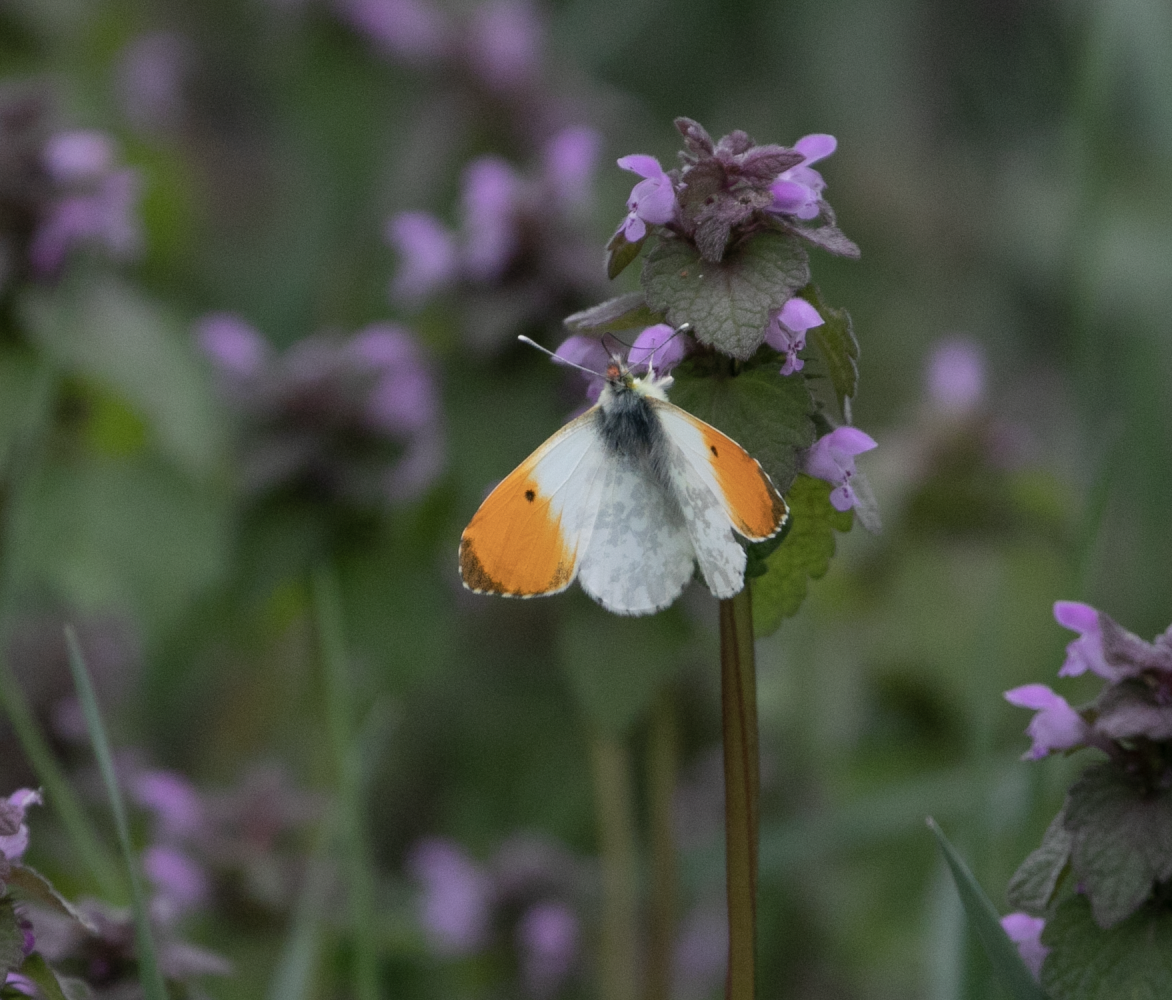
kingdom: Animalia
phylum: Arthropoda
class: Insecta
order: Lepidoptera
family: Pieridae
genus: Anthocharis
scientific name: Anthocharis cardamines
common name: Orange-tip
